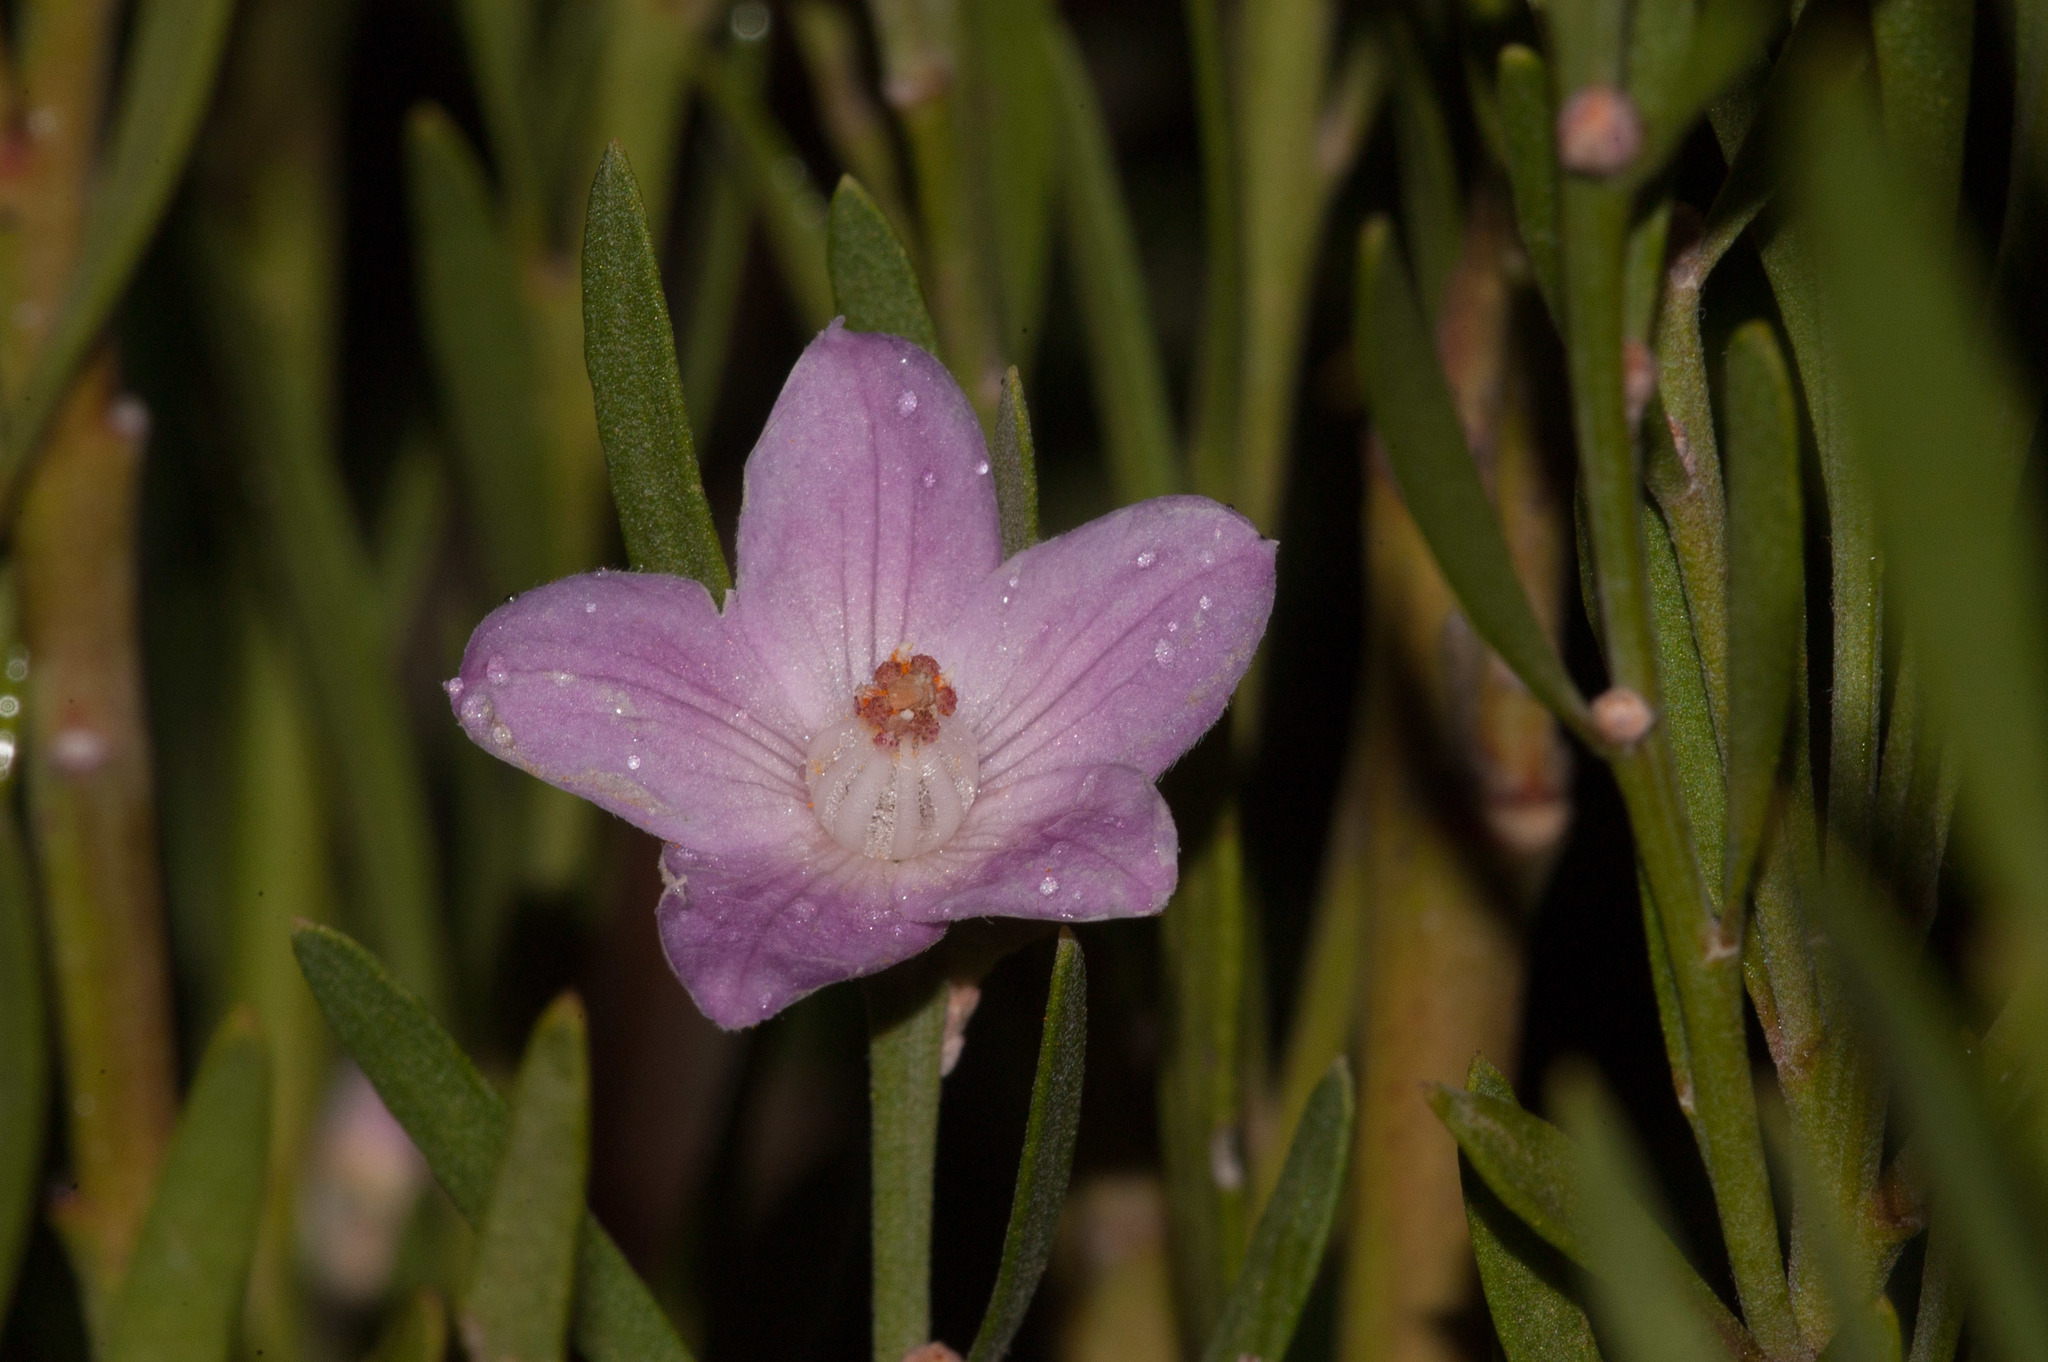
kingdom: Plantae
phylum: Tracheophyta
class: Magnoliopsida
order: Sapindales
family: Rutaceae
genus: Eriostemon
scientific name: Eriostemon australasius
